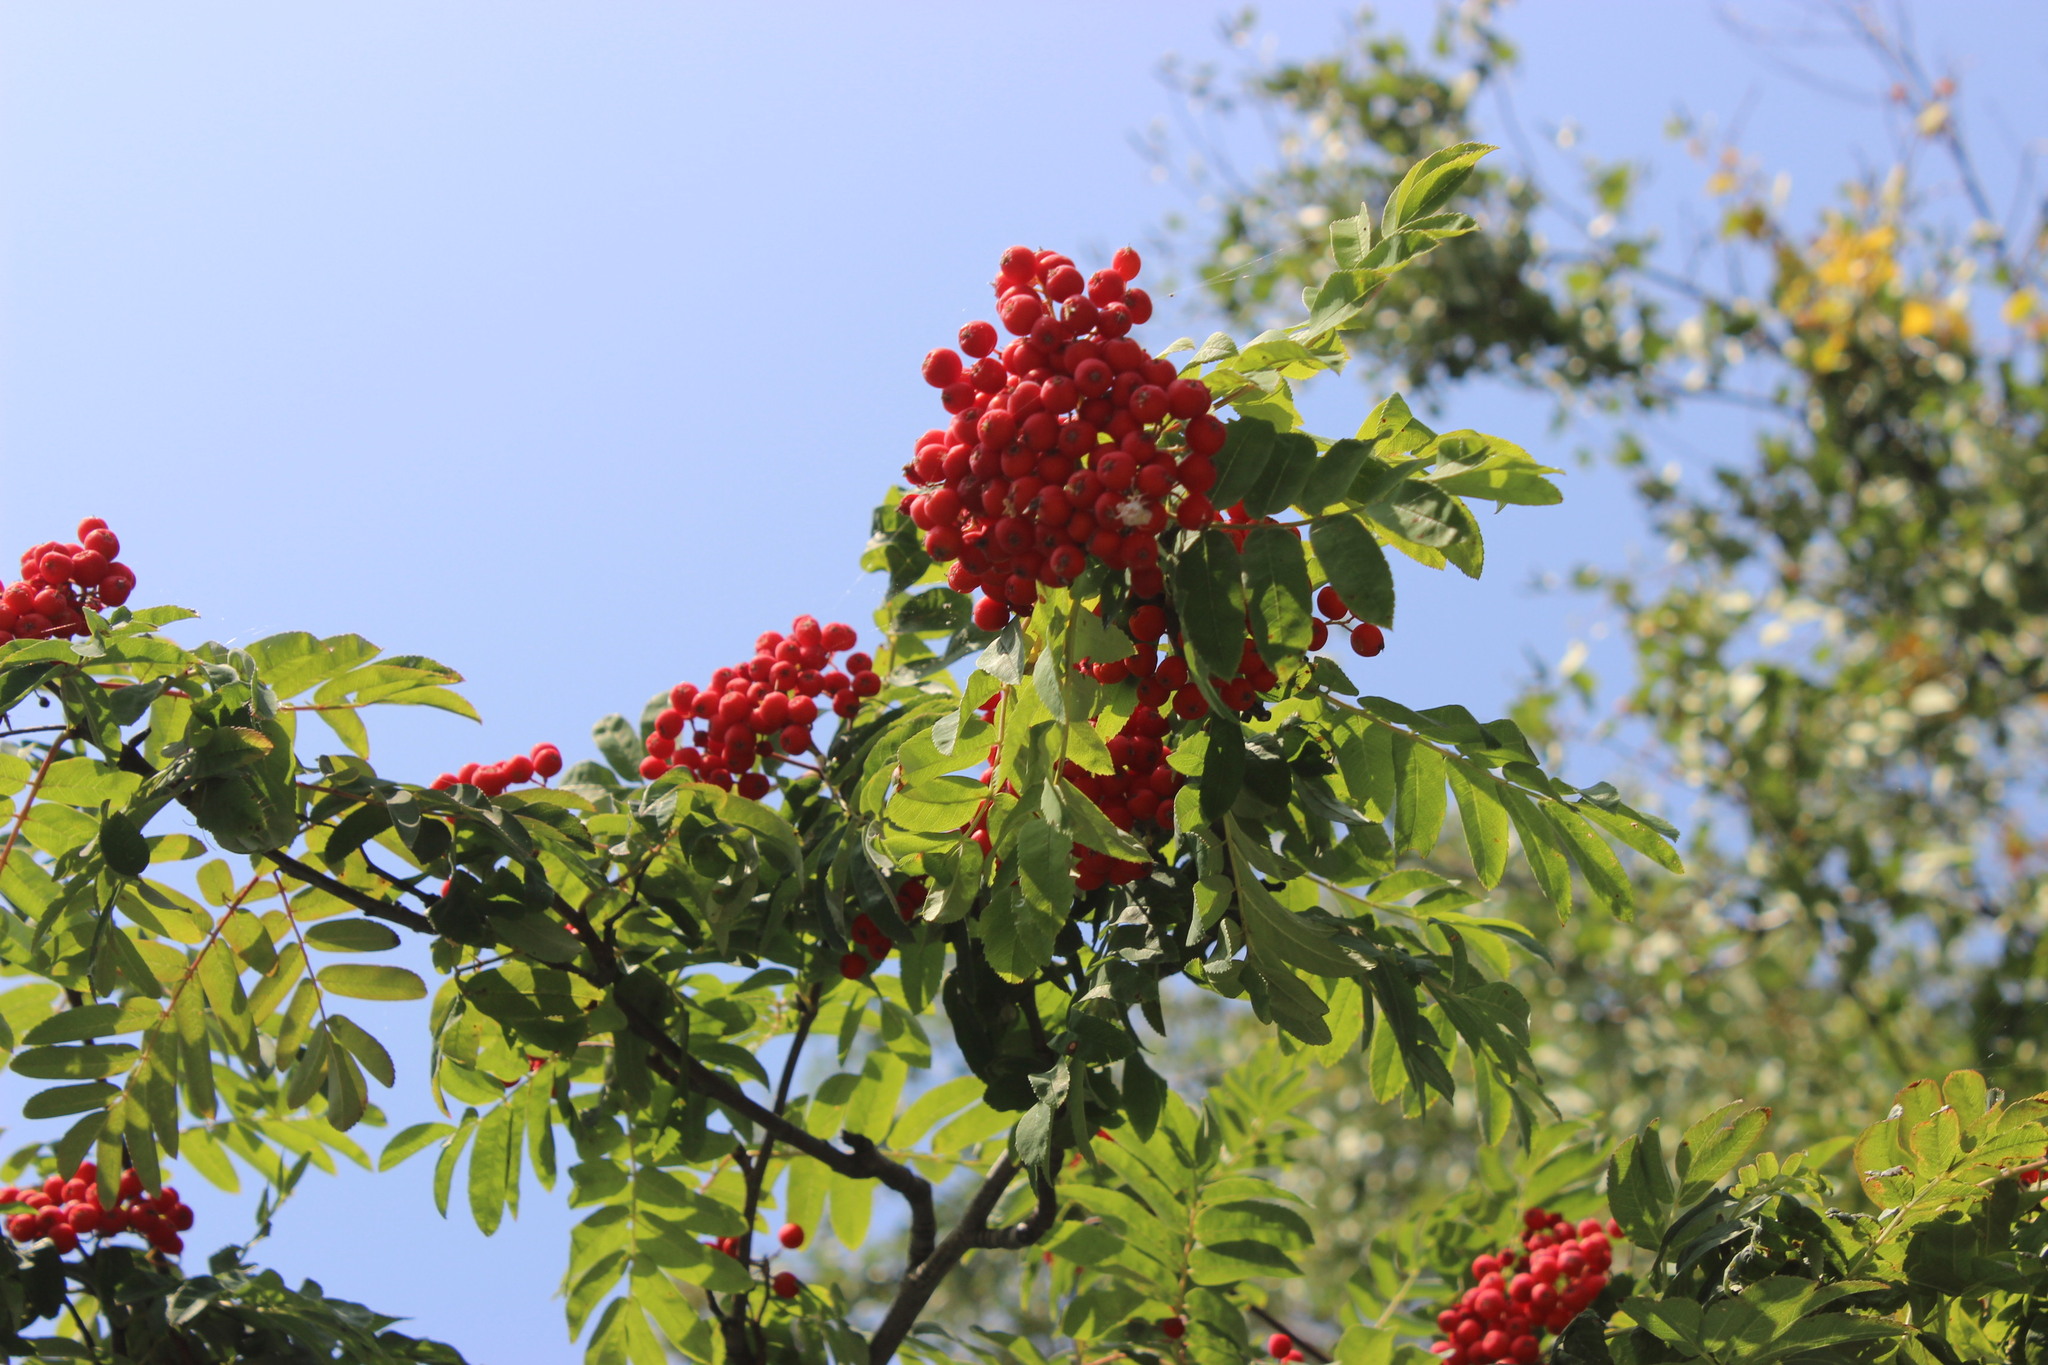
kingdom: Plantae
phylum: Tracheophyta
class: Magnoliopsida
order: Rosales
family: Rosaceae
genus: Sorbus
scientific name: Sorbus aucuparia
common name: Rowan
